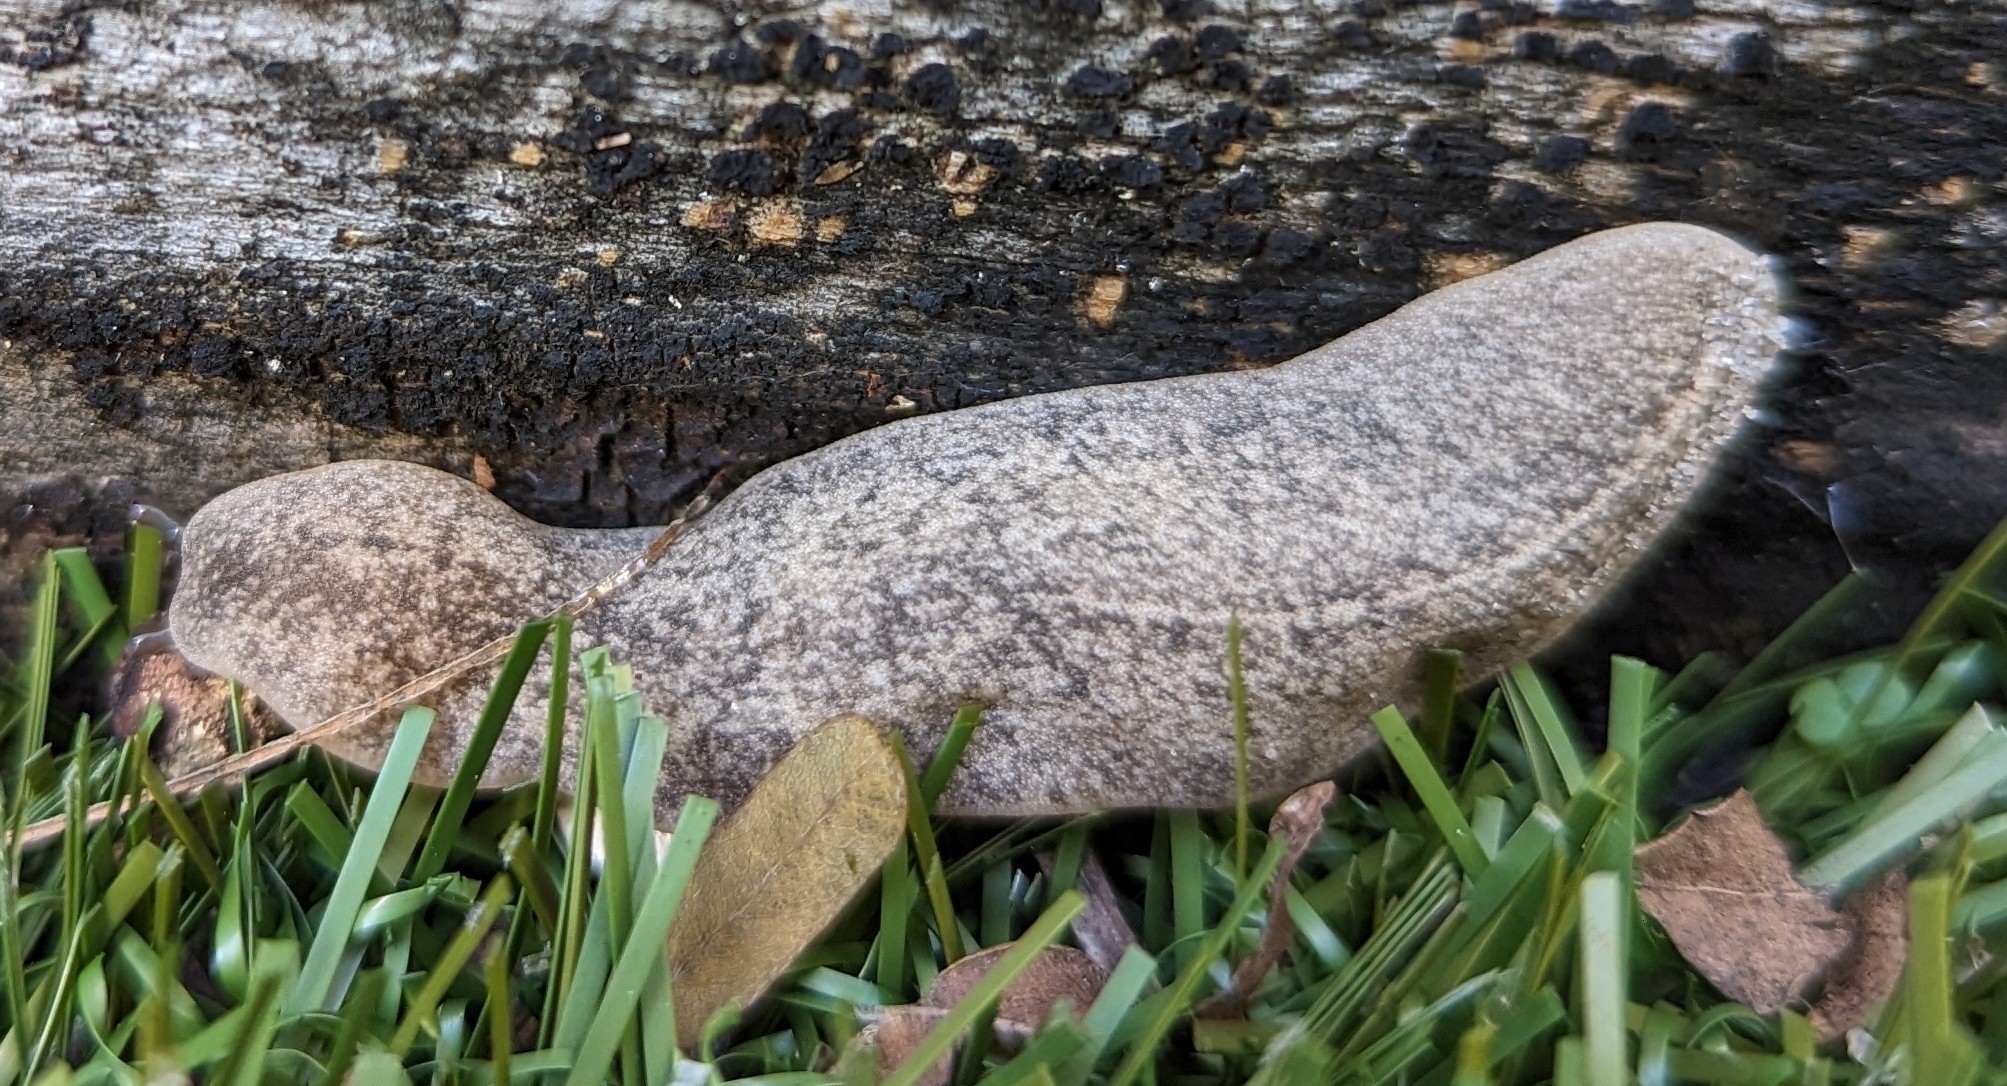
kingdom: Animalia
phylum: Mollusca
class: Gastropoda
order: Systellommatophora
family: Veronicellidae
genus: Leidyula
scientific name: Leidyula floridana
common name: Florida leatherleaf
